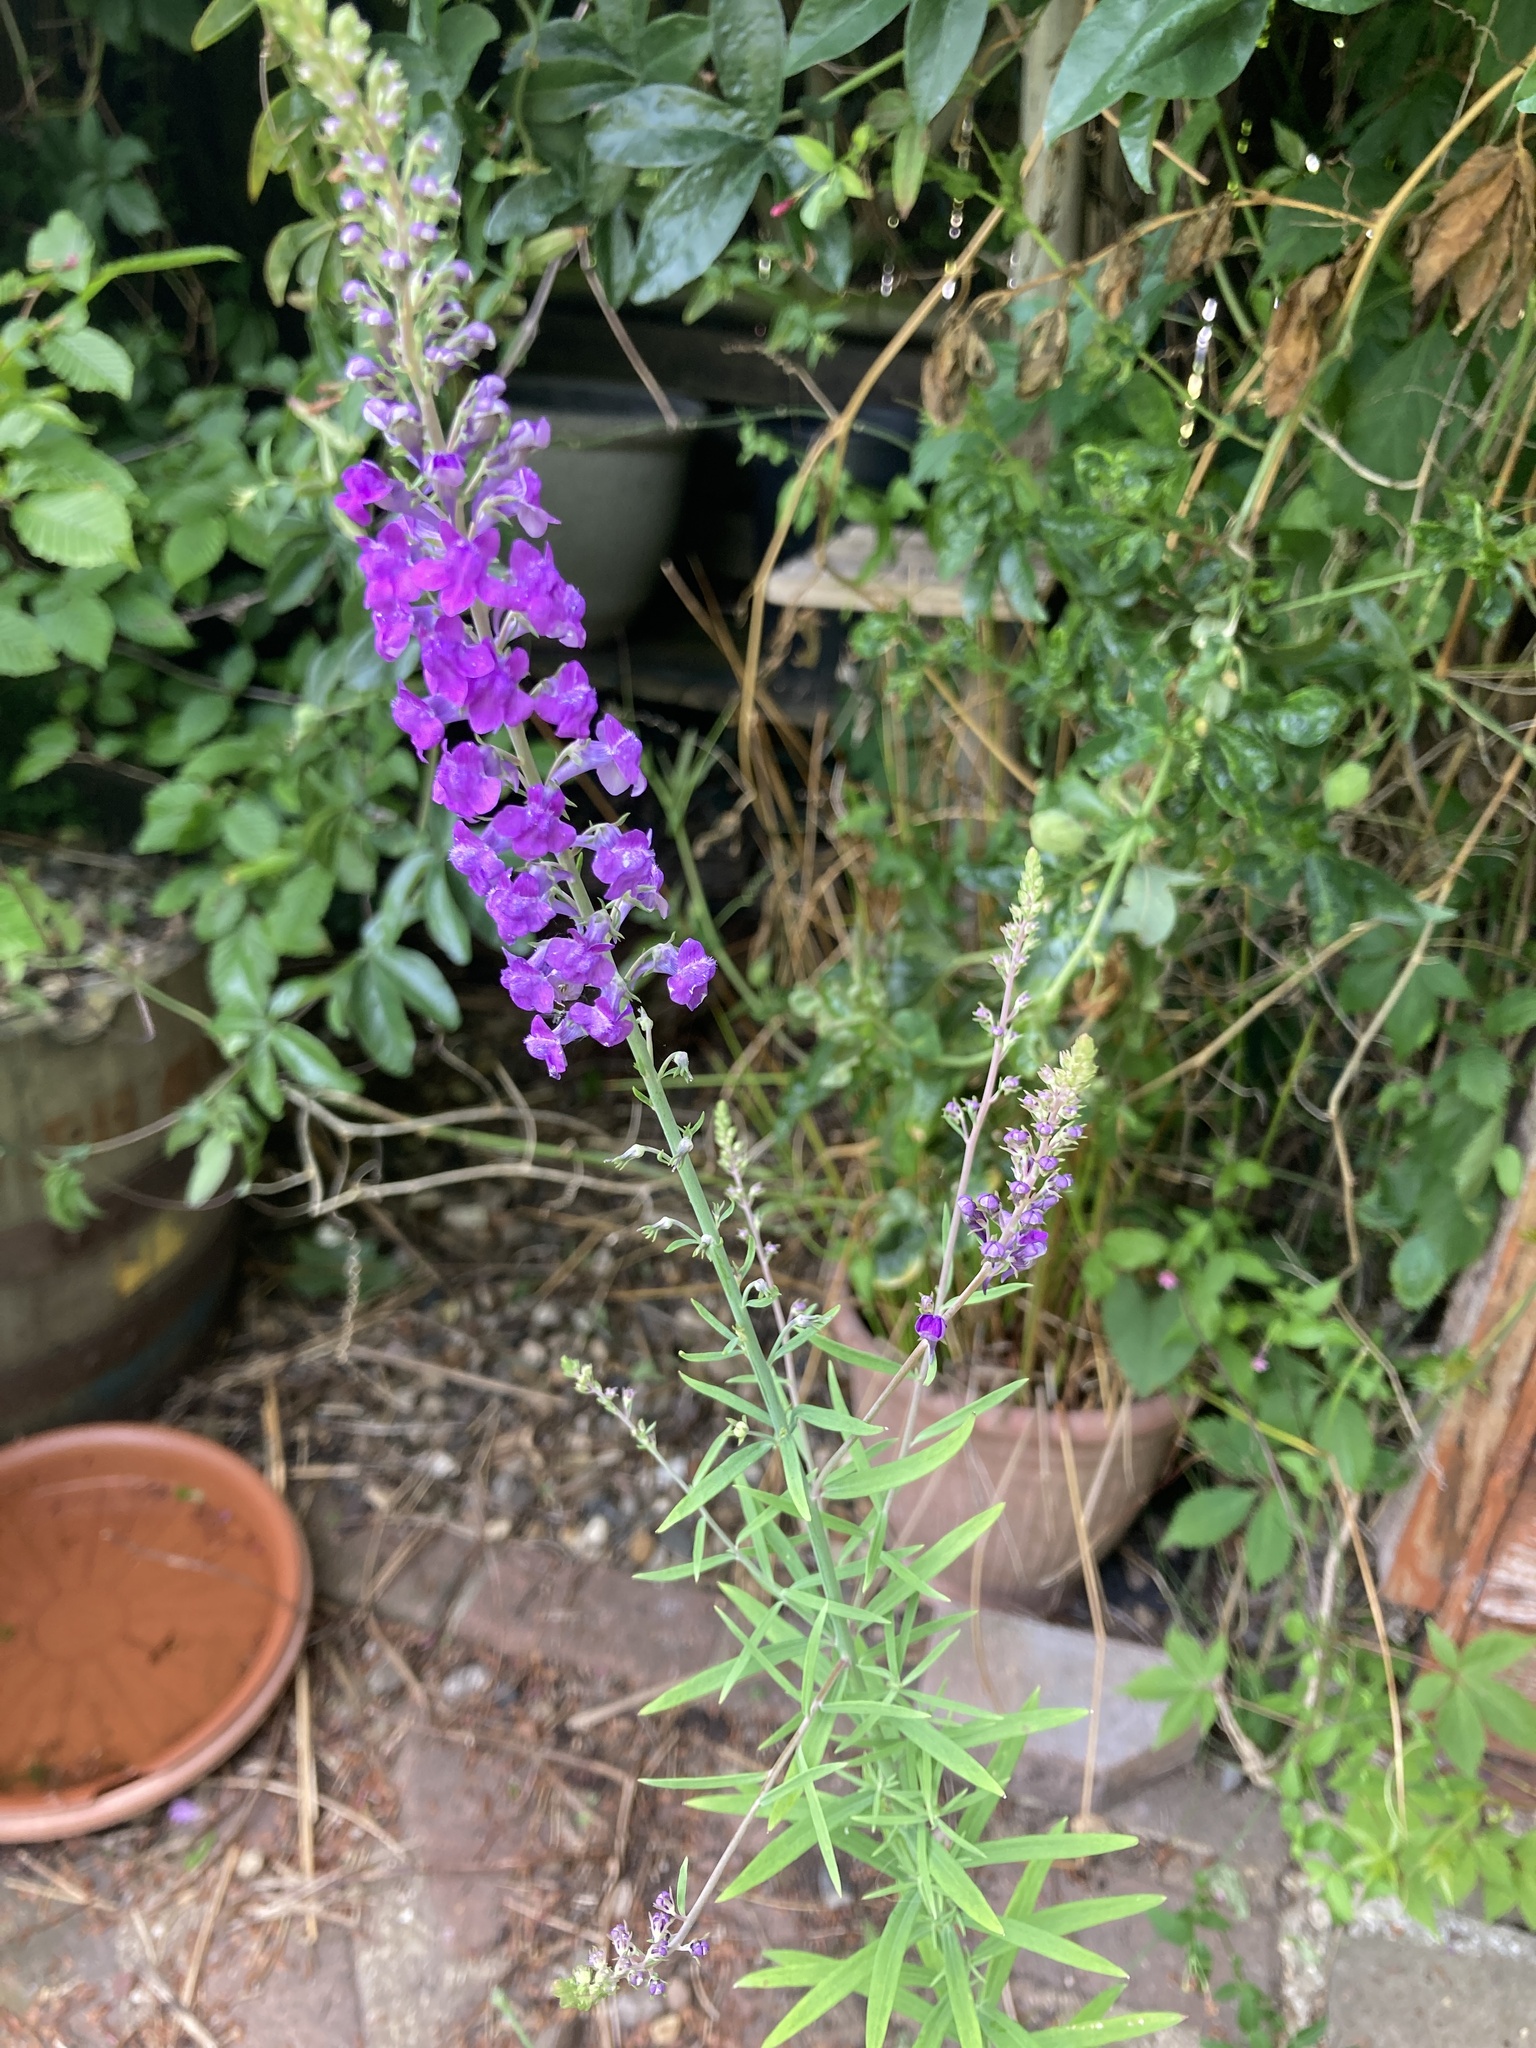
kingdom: Plantae
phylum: Tracheophyta
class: Magnoliopsida
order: Lamiales
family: Plantaginaceae
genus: Linaria
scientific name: Linaria purpurea
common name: Purple toadflax
